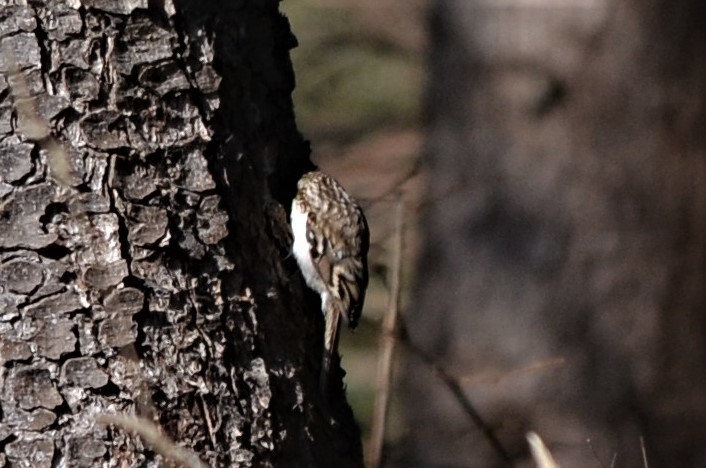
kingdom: Animalia
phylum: Chordata
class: Aves
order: Passeriformes
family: Certhiidae
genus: Certhia
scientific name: Certhia familiaris
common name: Eurasian treecreeper
